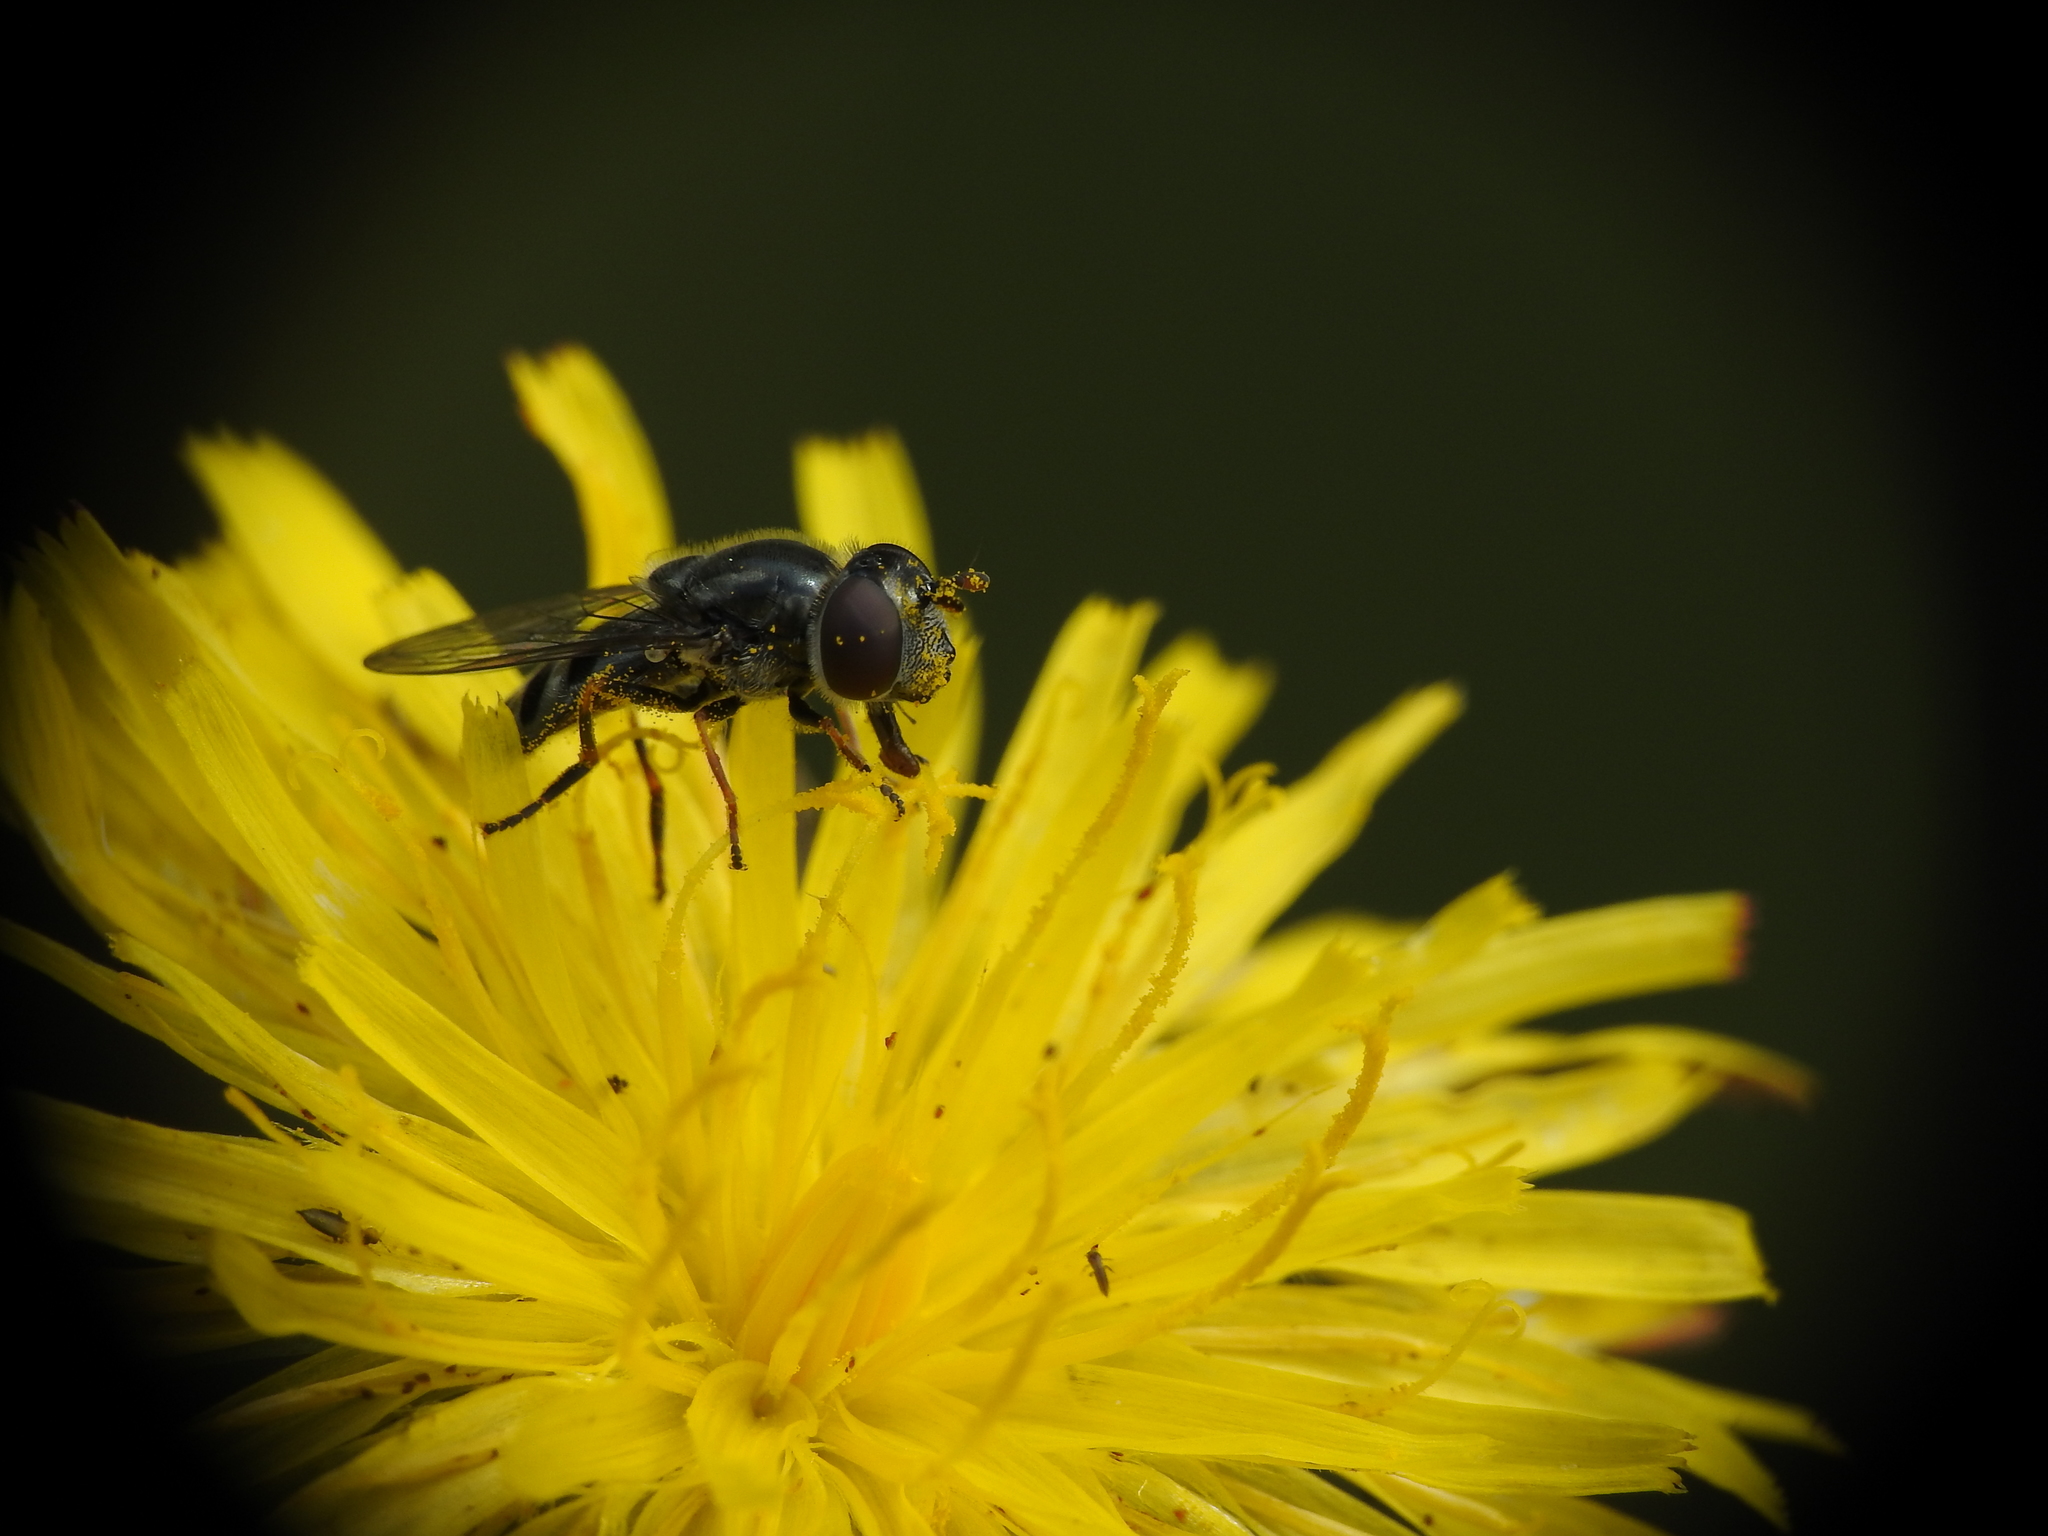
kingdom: Animalia
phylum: Arthropoda
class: Insecta
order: Diptera
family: Syrphidae
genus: Platycheirus
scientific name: Platycheirus stegnus
